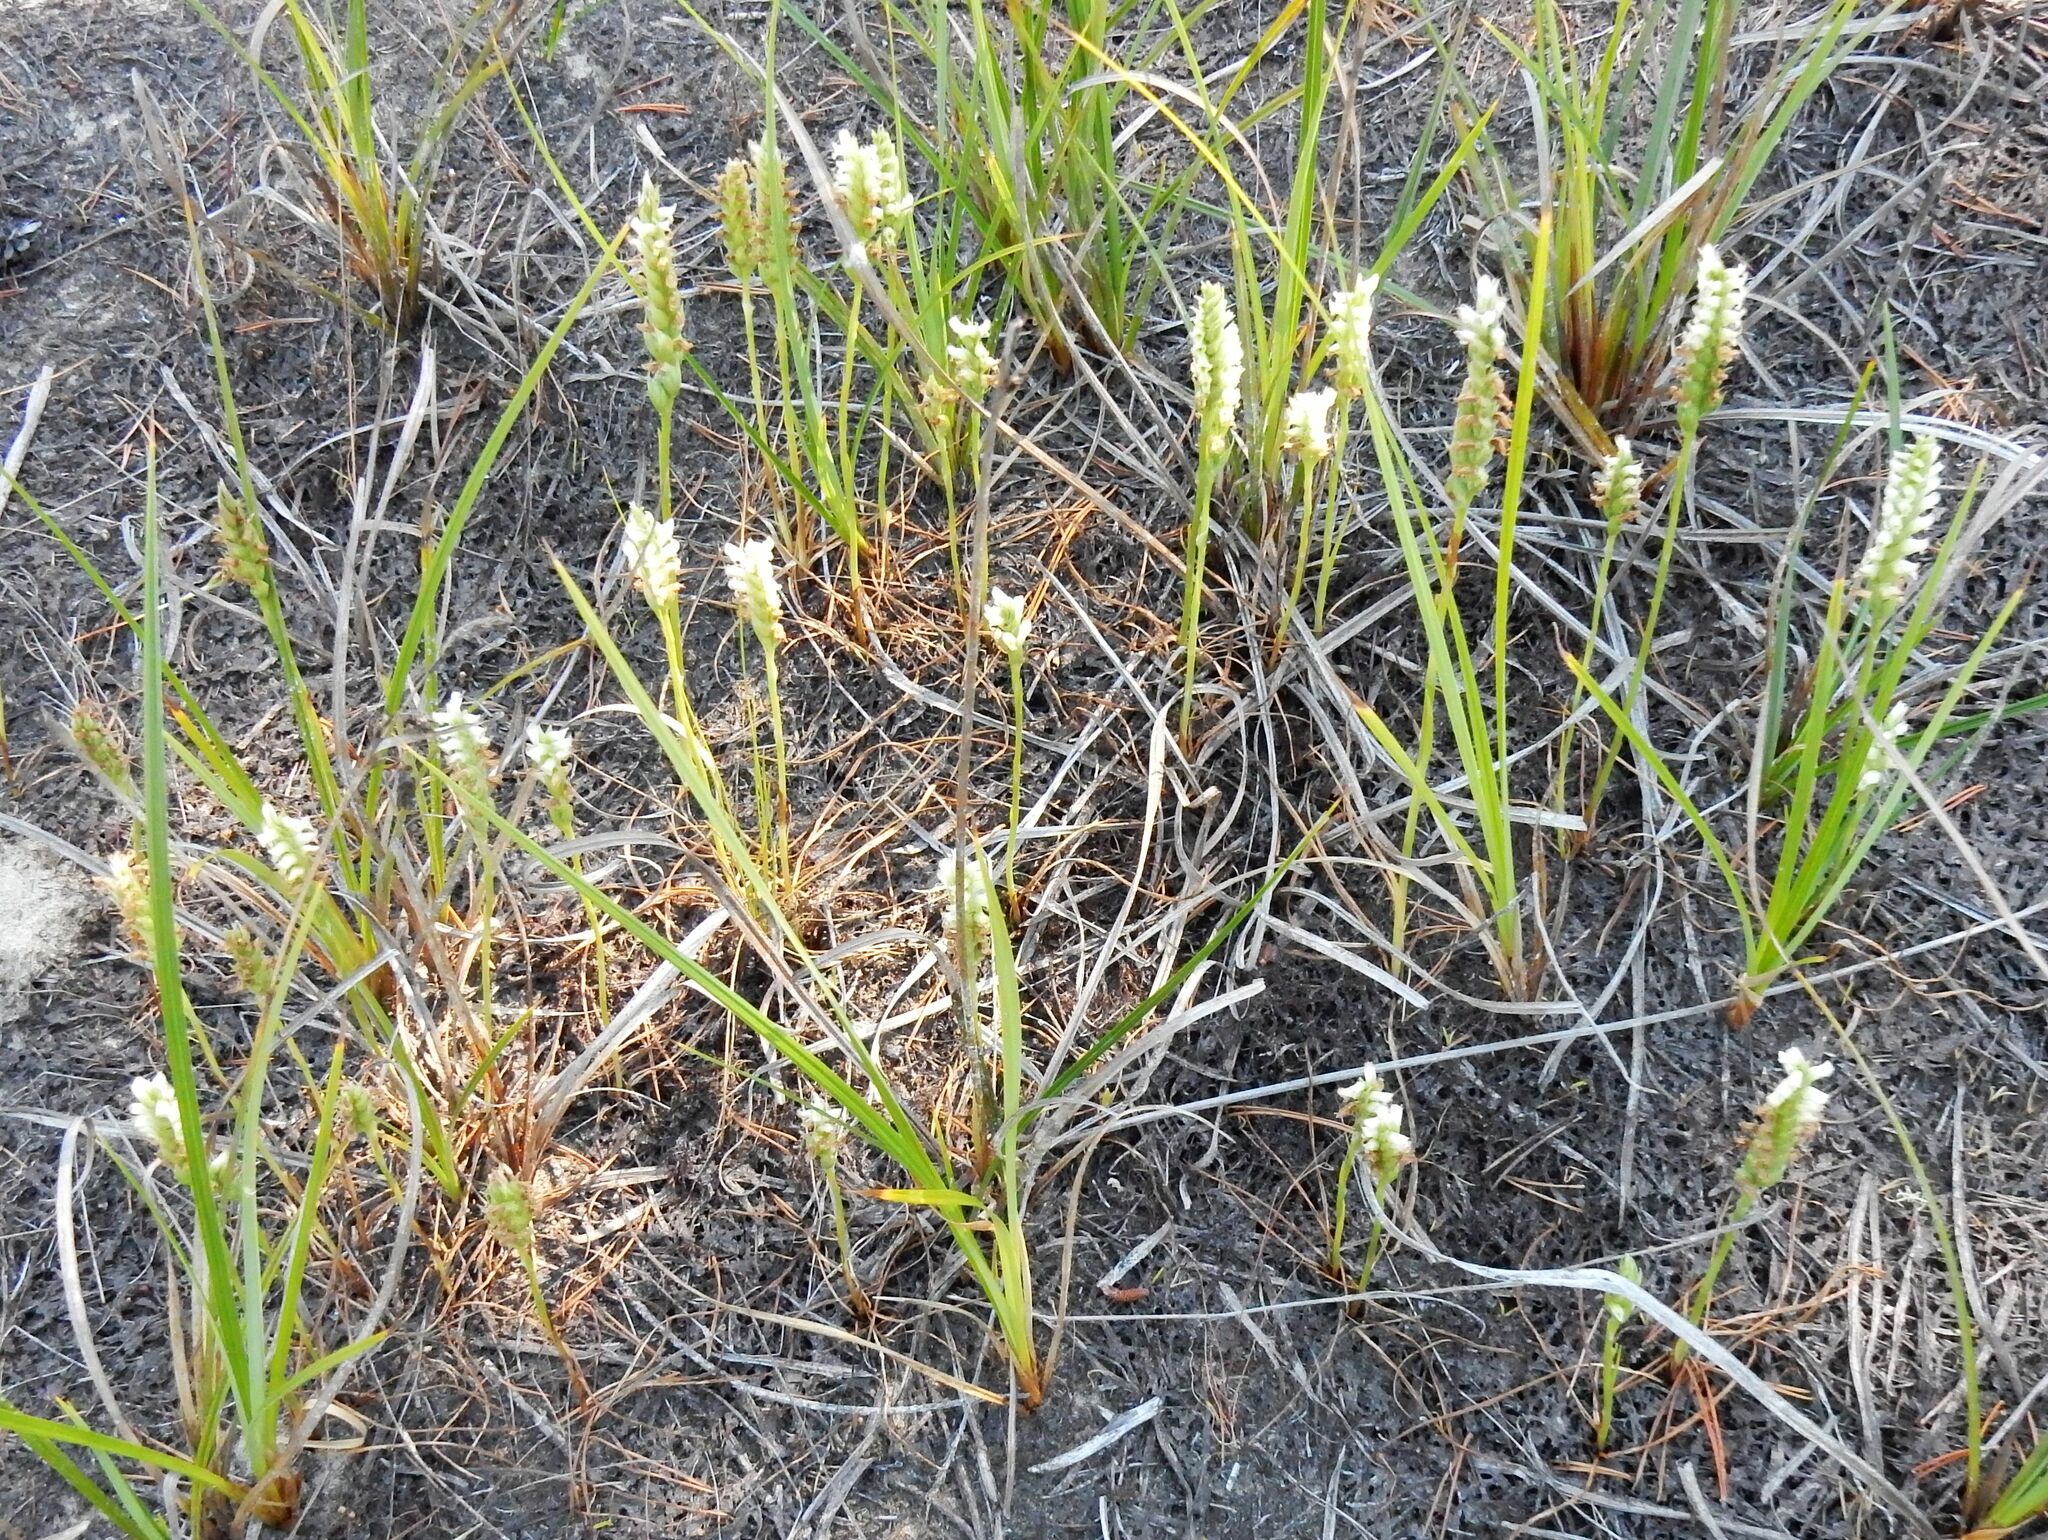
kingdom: Plantae
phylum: Tracheophyta
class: Liliopsida
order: Asparagales
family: Orchidaceae
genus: Spiranthes
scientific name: Spiranthes romanzoffiana
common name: Irish lady's-tresses
